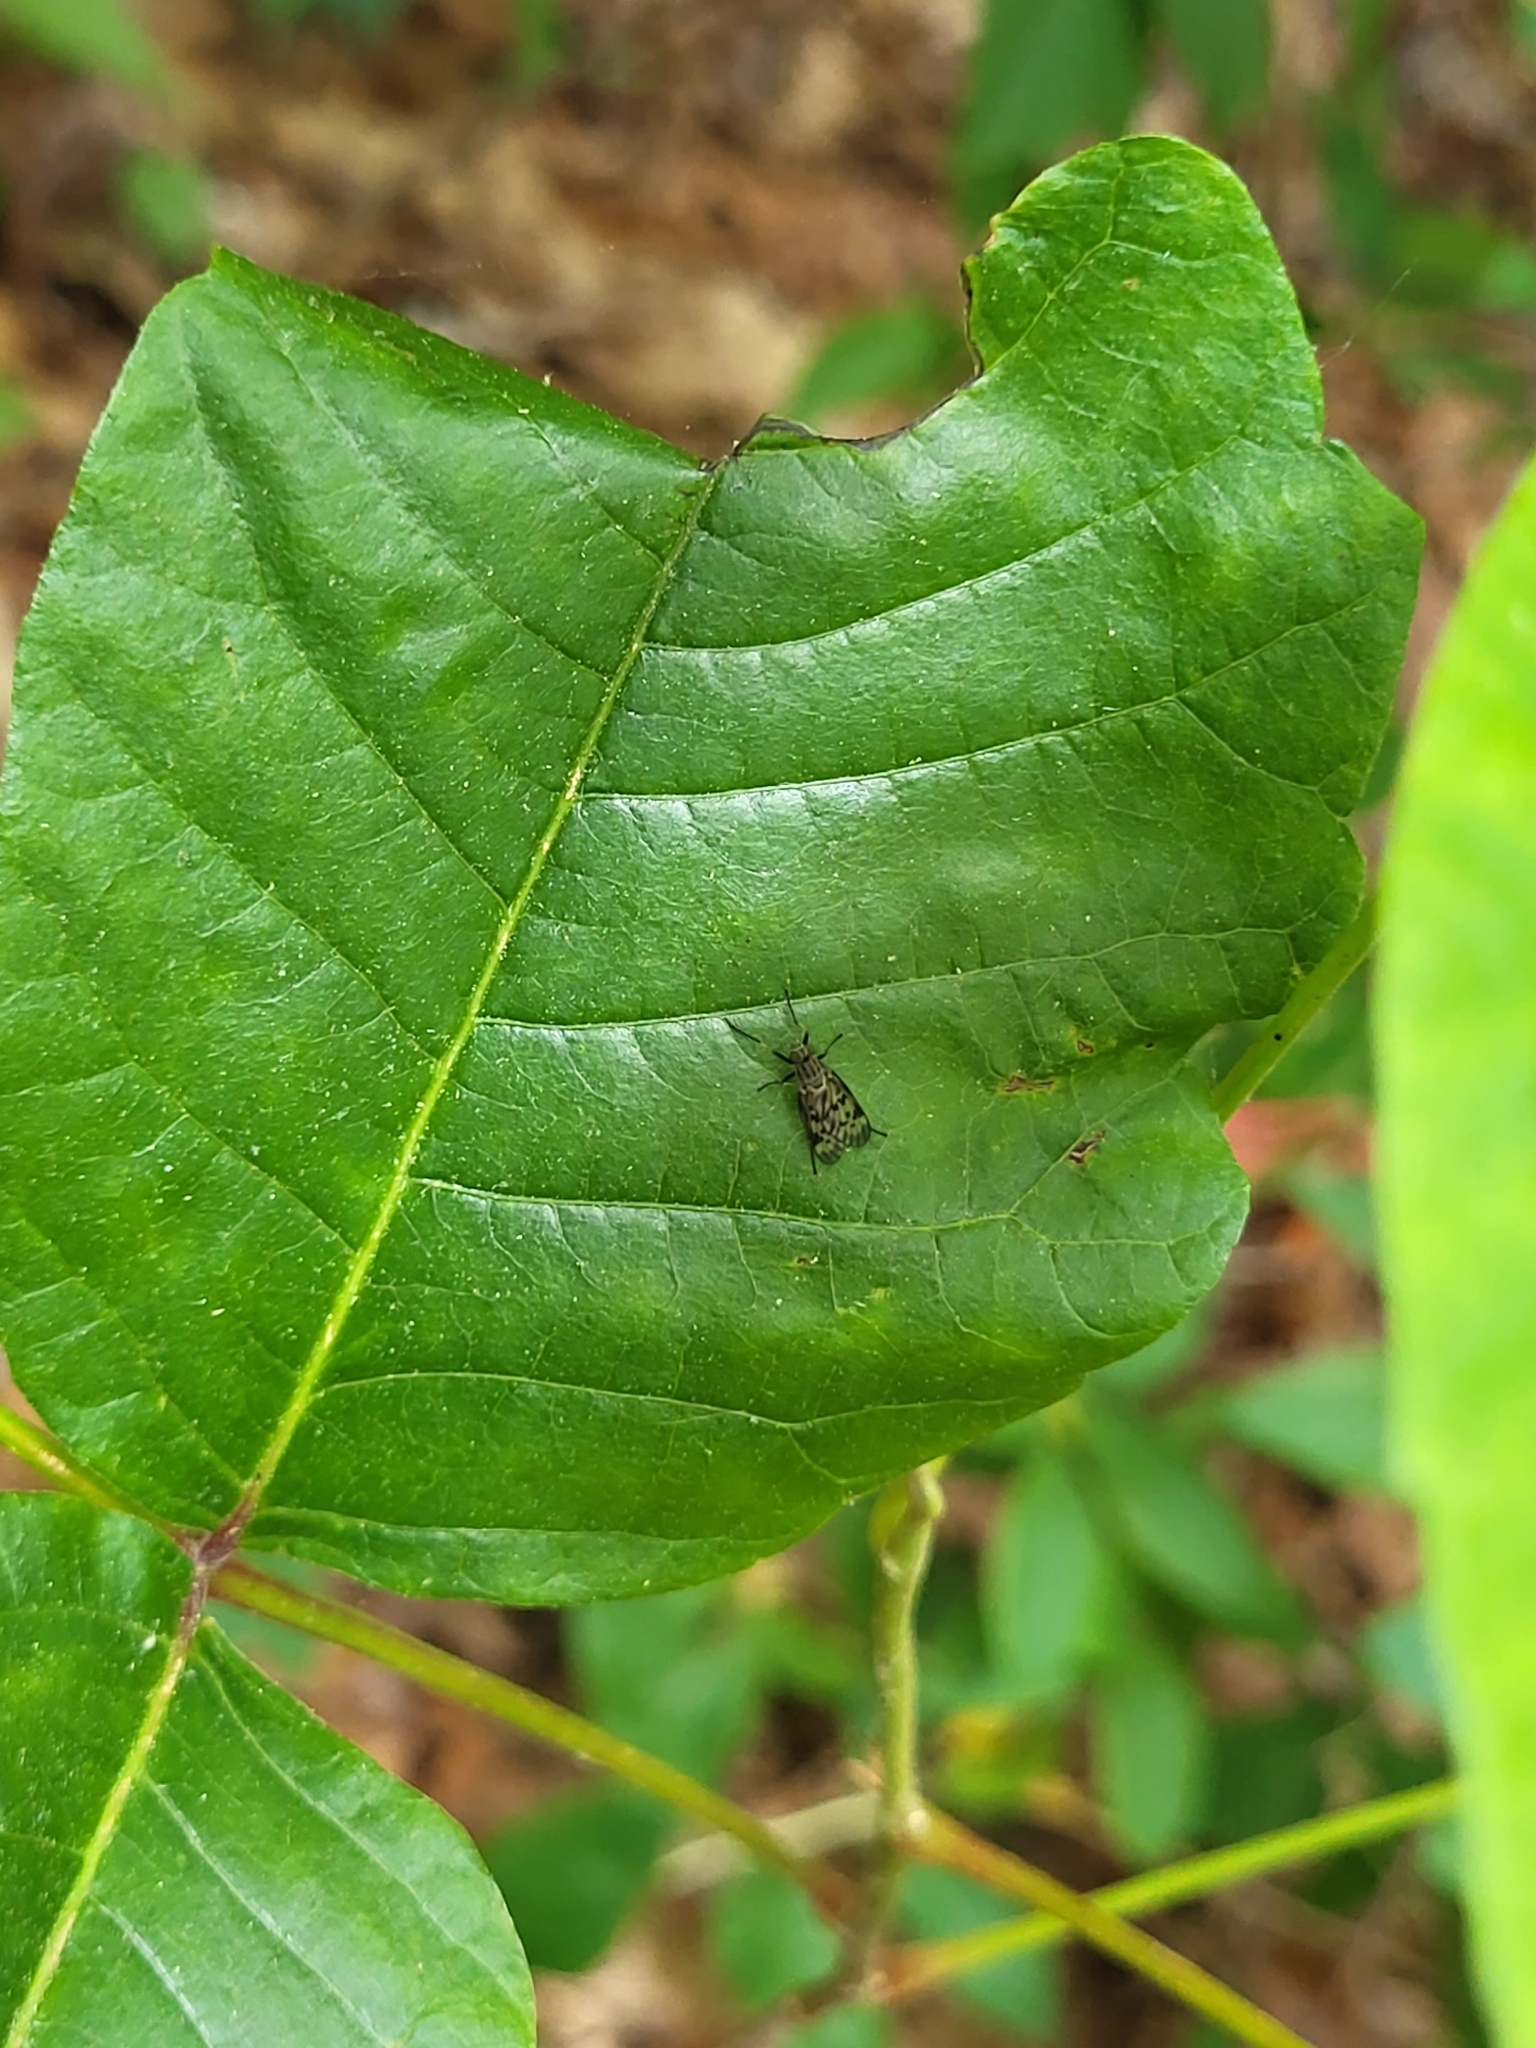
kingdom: Animalia
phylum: Arthropoda
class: Insecta
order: Diptera
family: Rhagionidae
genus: Rhagio
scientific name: Rhagio punctipennis
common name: Lesser variegated snipe fly
